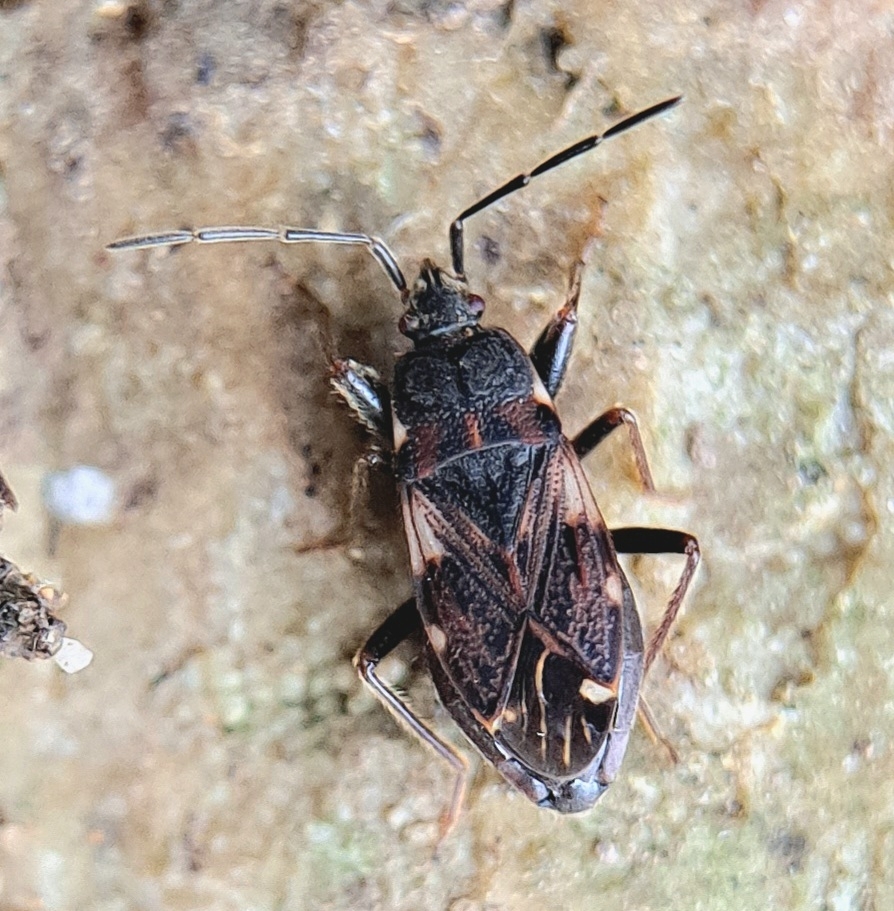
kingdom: Animalia
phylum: Arthropoda
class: Insecta
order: Hemiptera
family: Rhyparochromidae
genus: Eremocoris
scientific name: Eremocoris podagricus
